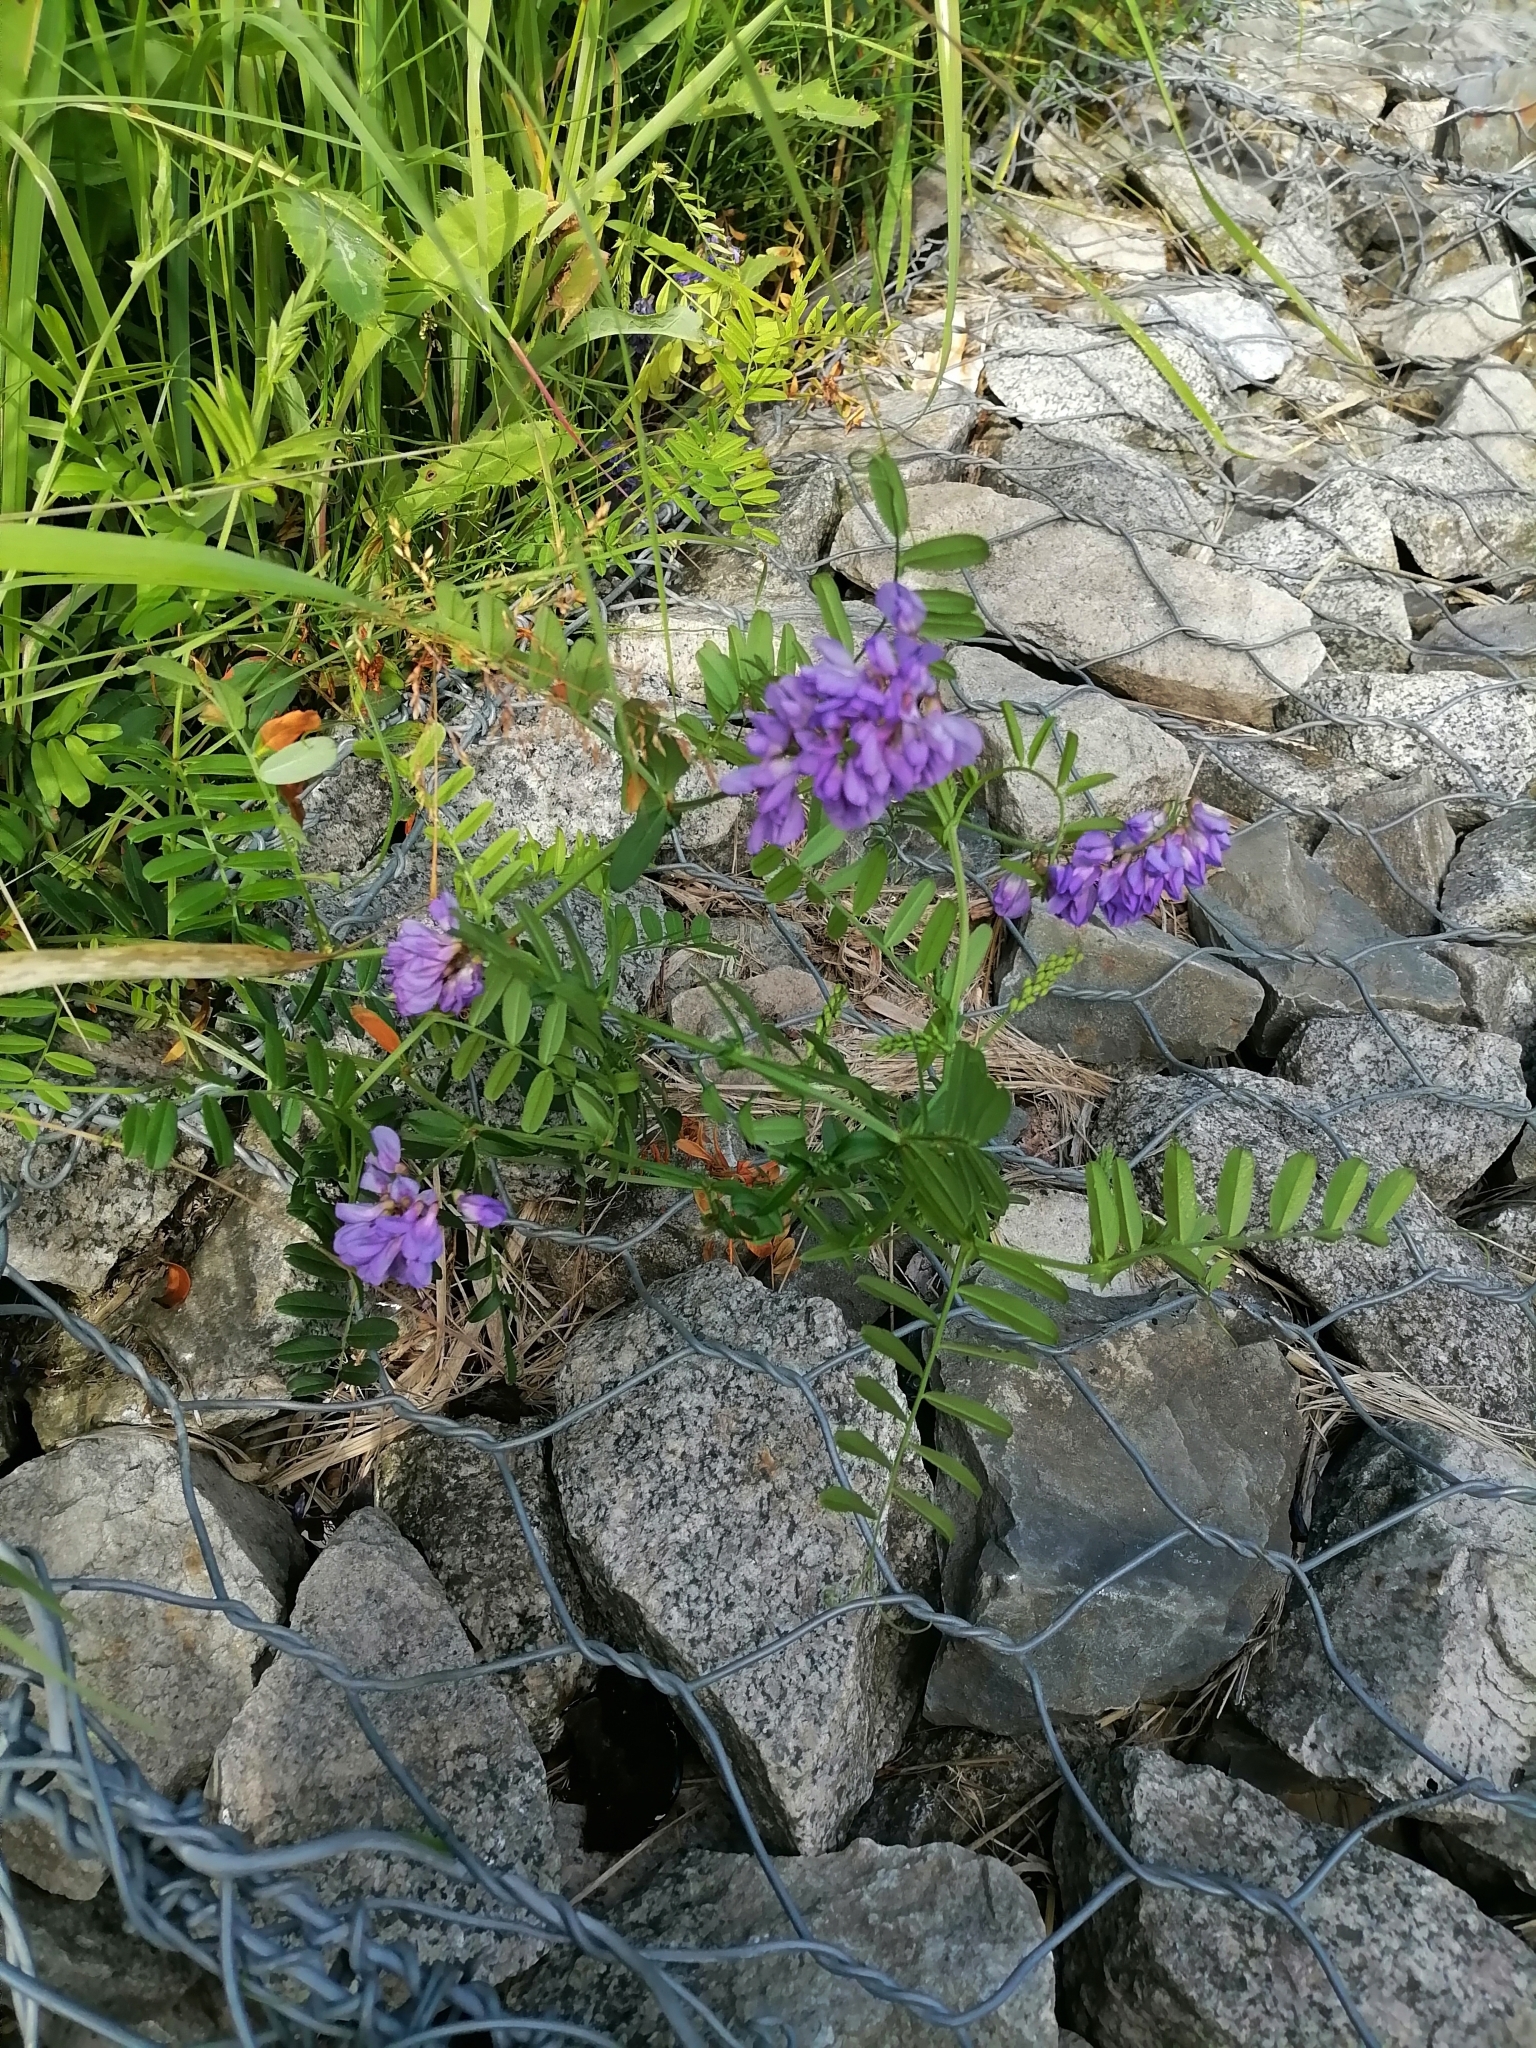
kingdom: Plantae
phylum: Tracheophyta
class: Magnoliopsida
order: Fabales
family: Fabaceae
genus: Vicia
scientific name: Vicia amoena
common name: Cheder ebs
